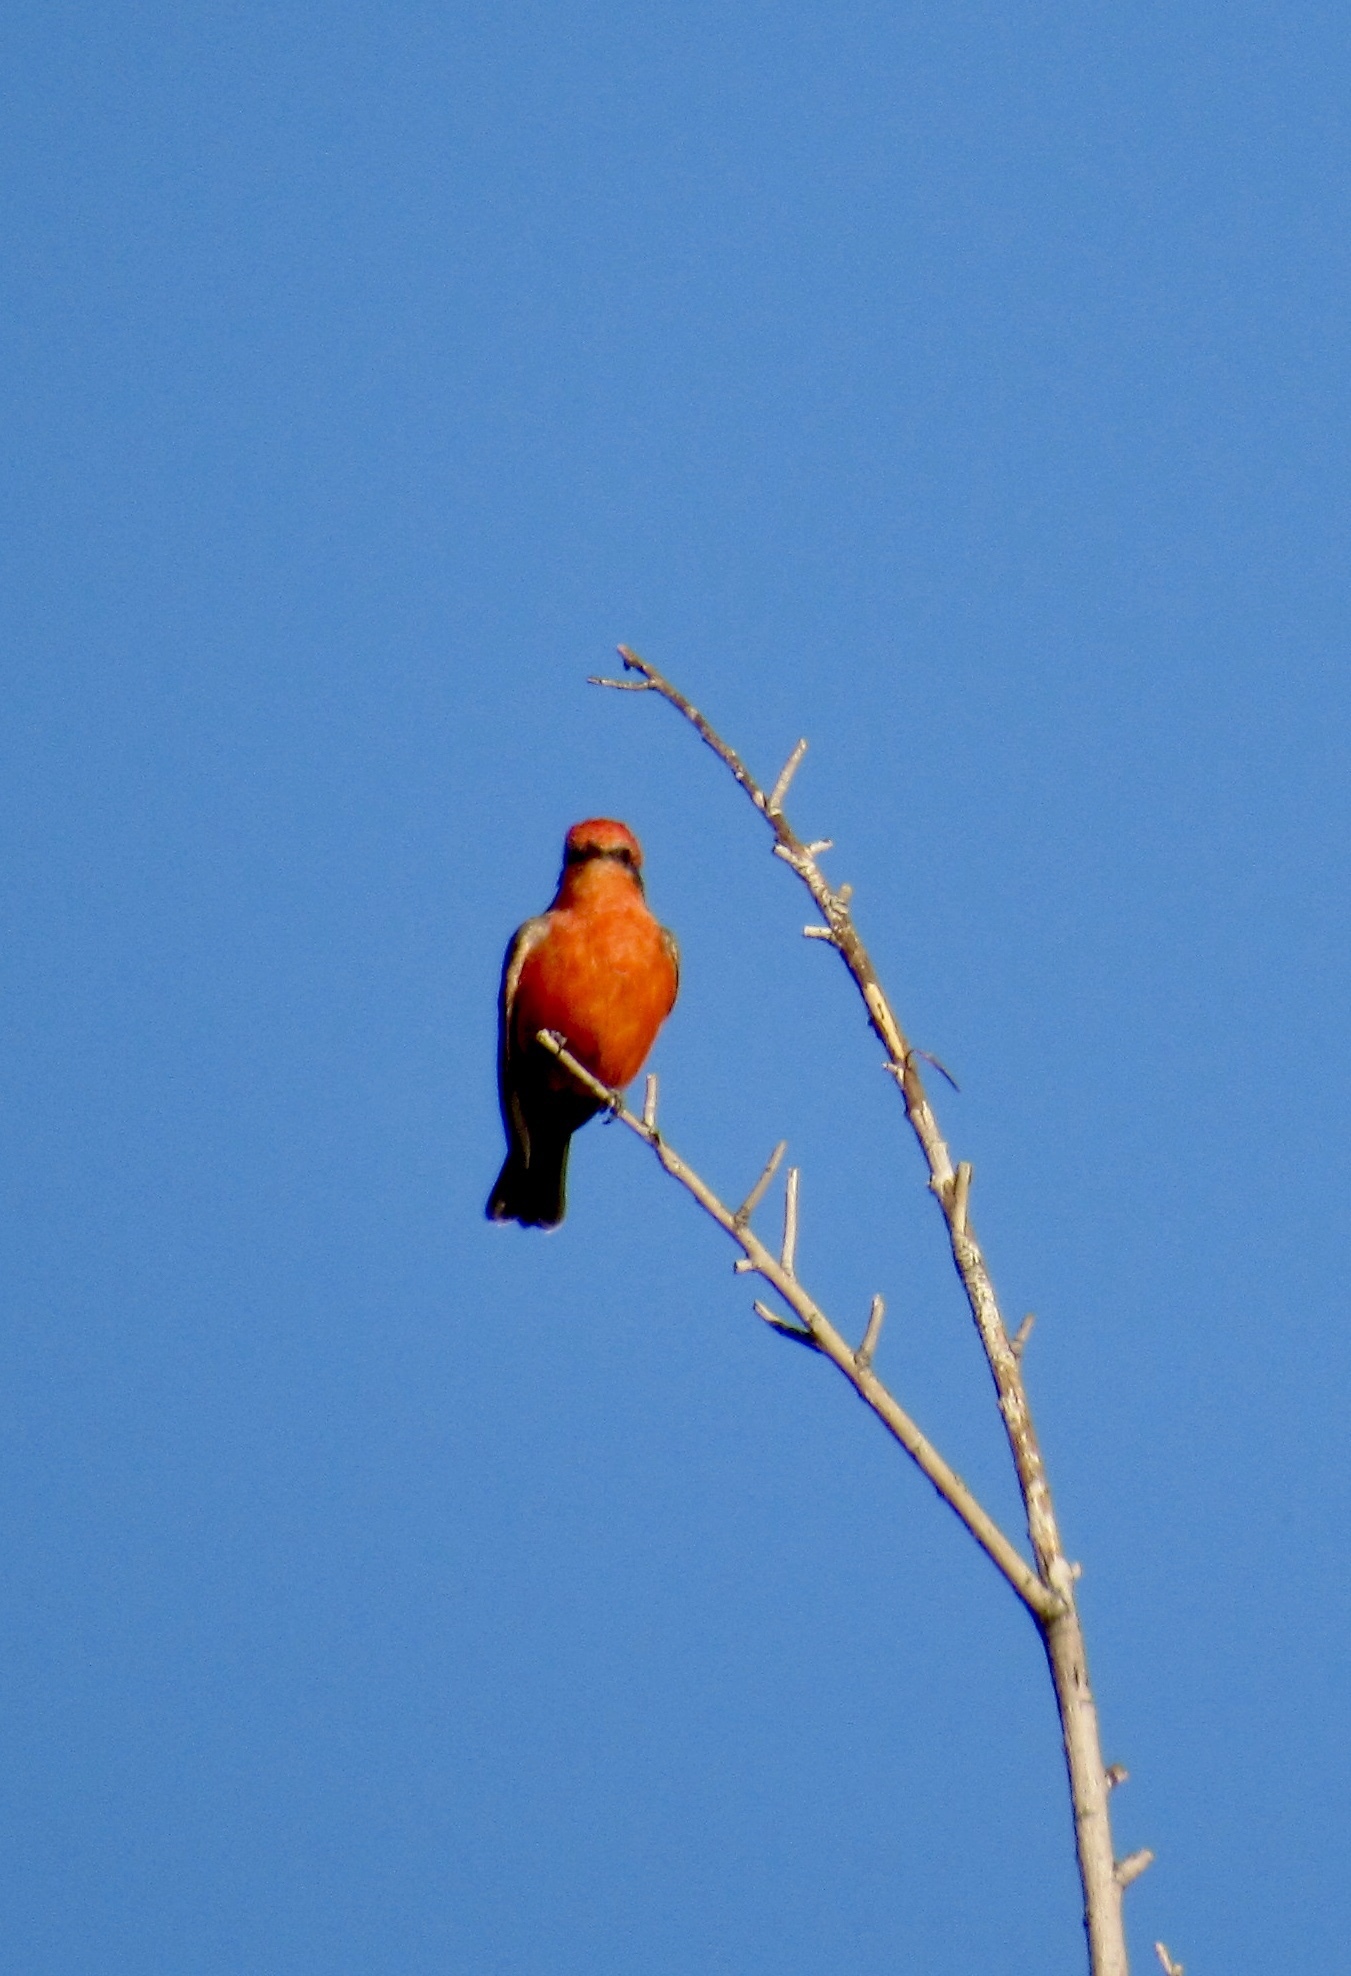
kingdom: Animalia
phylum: Chordata
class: Aves
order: Passeriformes
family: Tyrannidae
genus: Pyrocephalus
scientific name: Pyrocephalus rubinus
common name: Vermilion flycatcher
